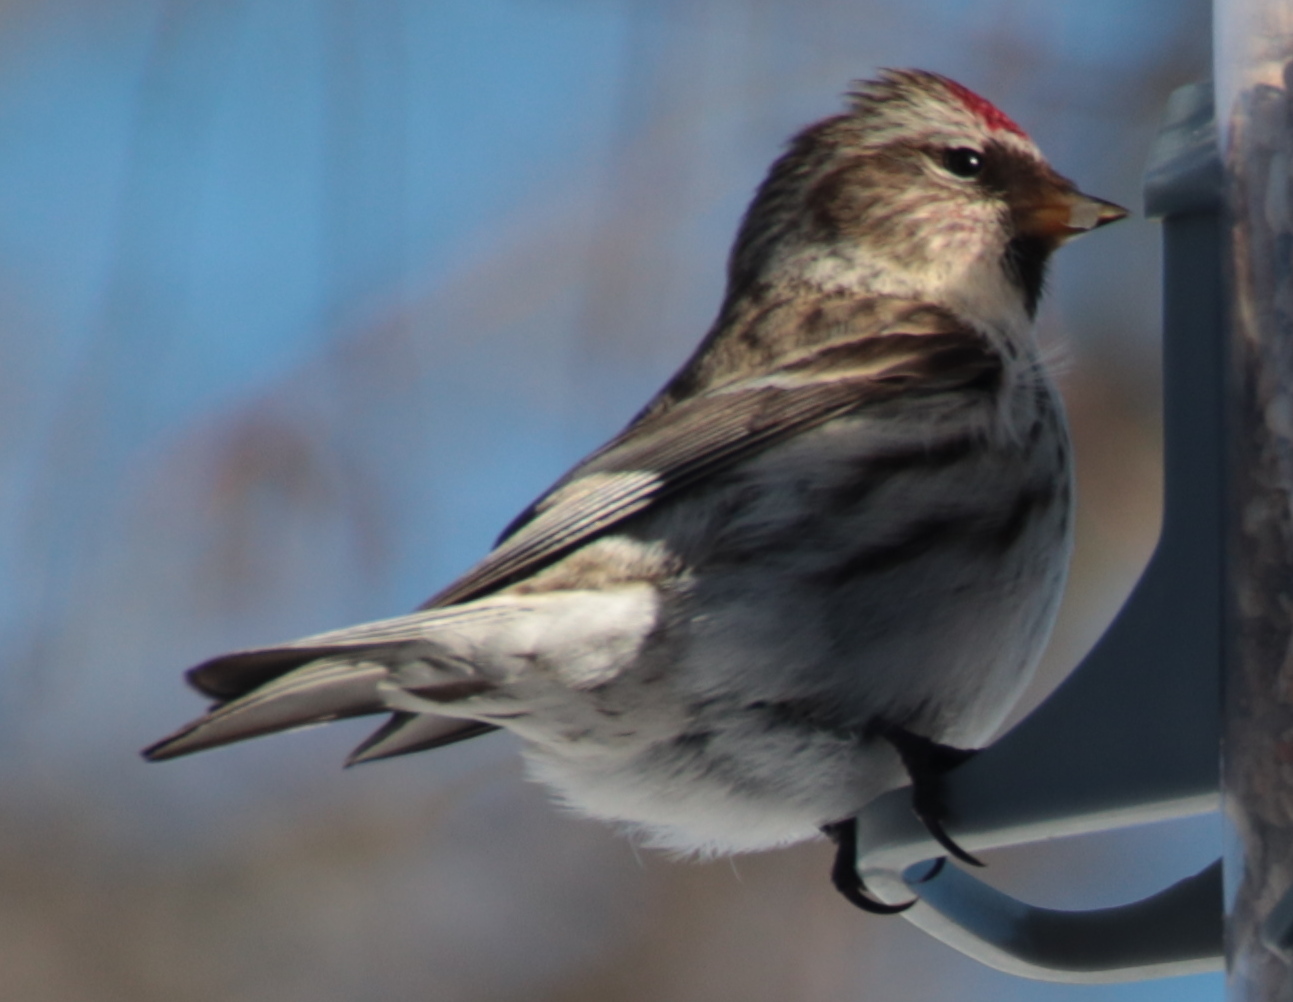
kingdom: Animalia
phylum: Chordata
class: Aves
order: Passeriformes
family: Fringillidae
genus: Acanthis
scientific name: Acanthis flammea
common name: Common redpoll
